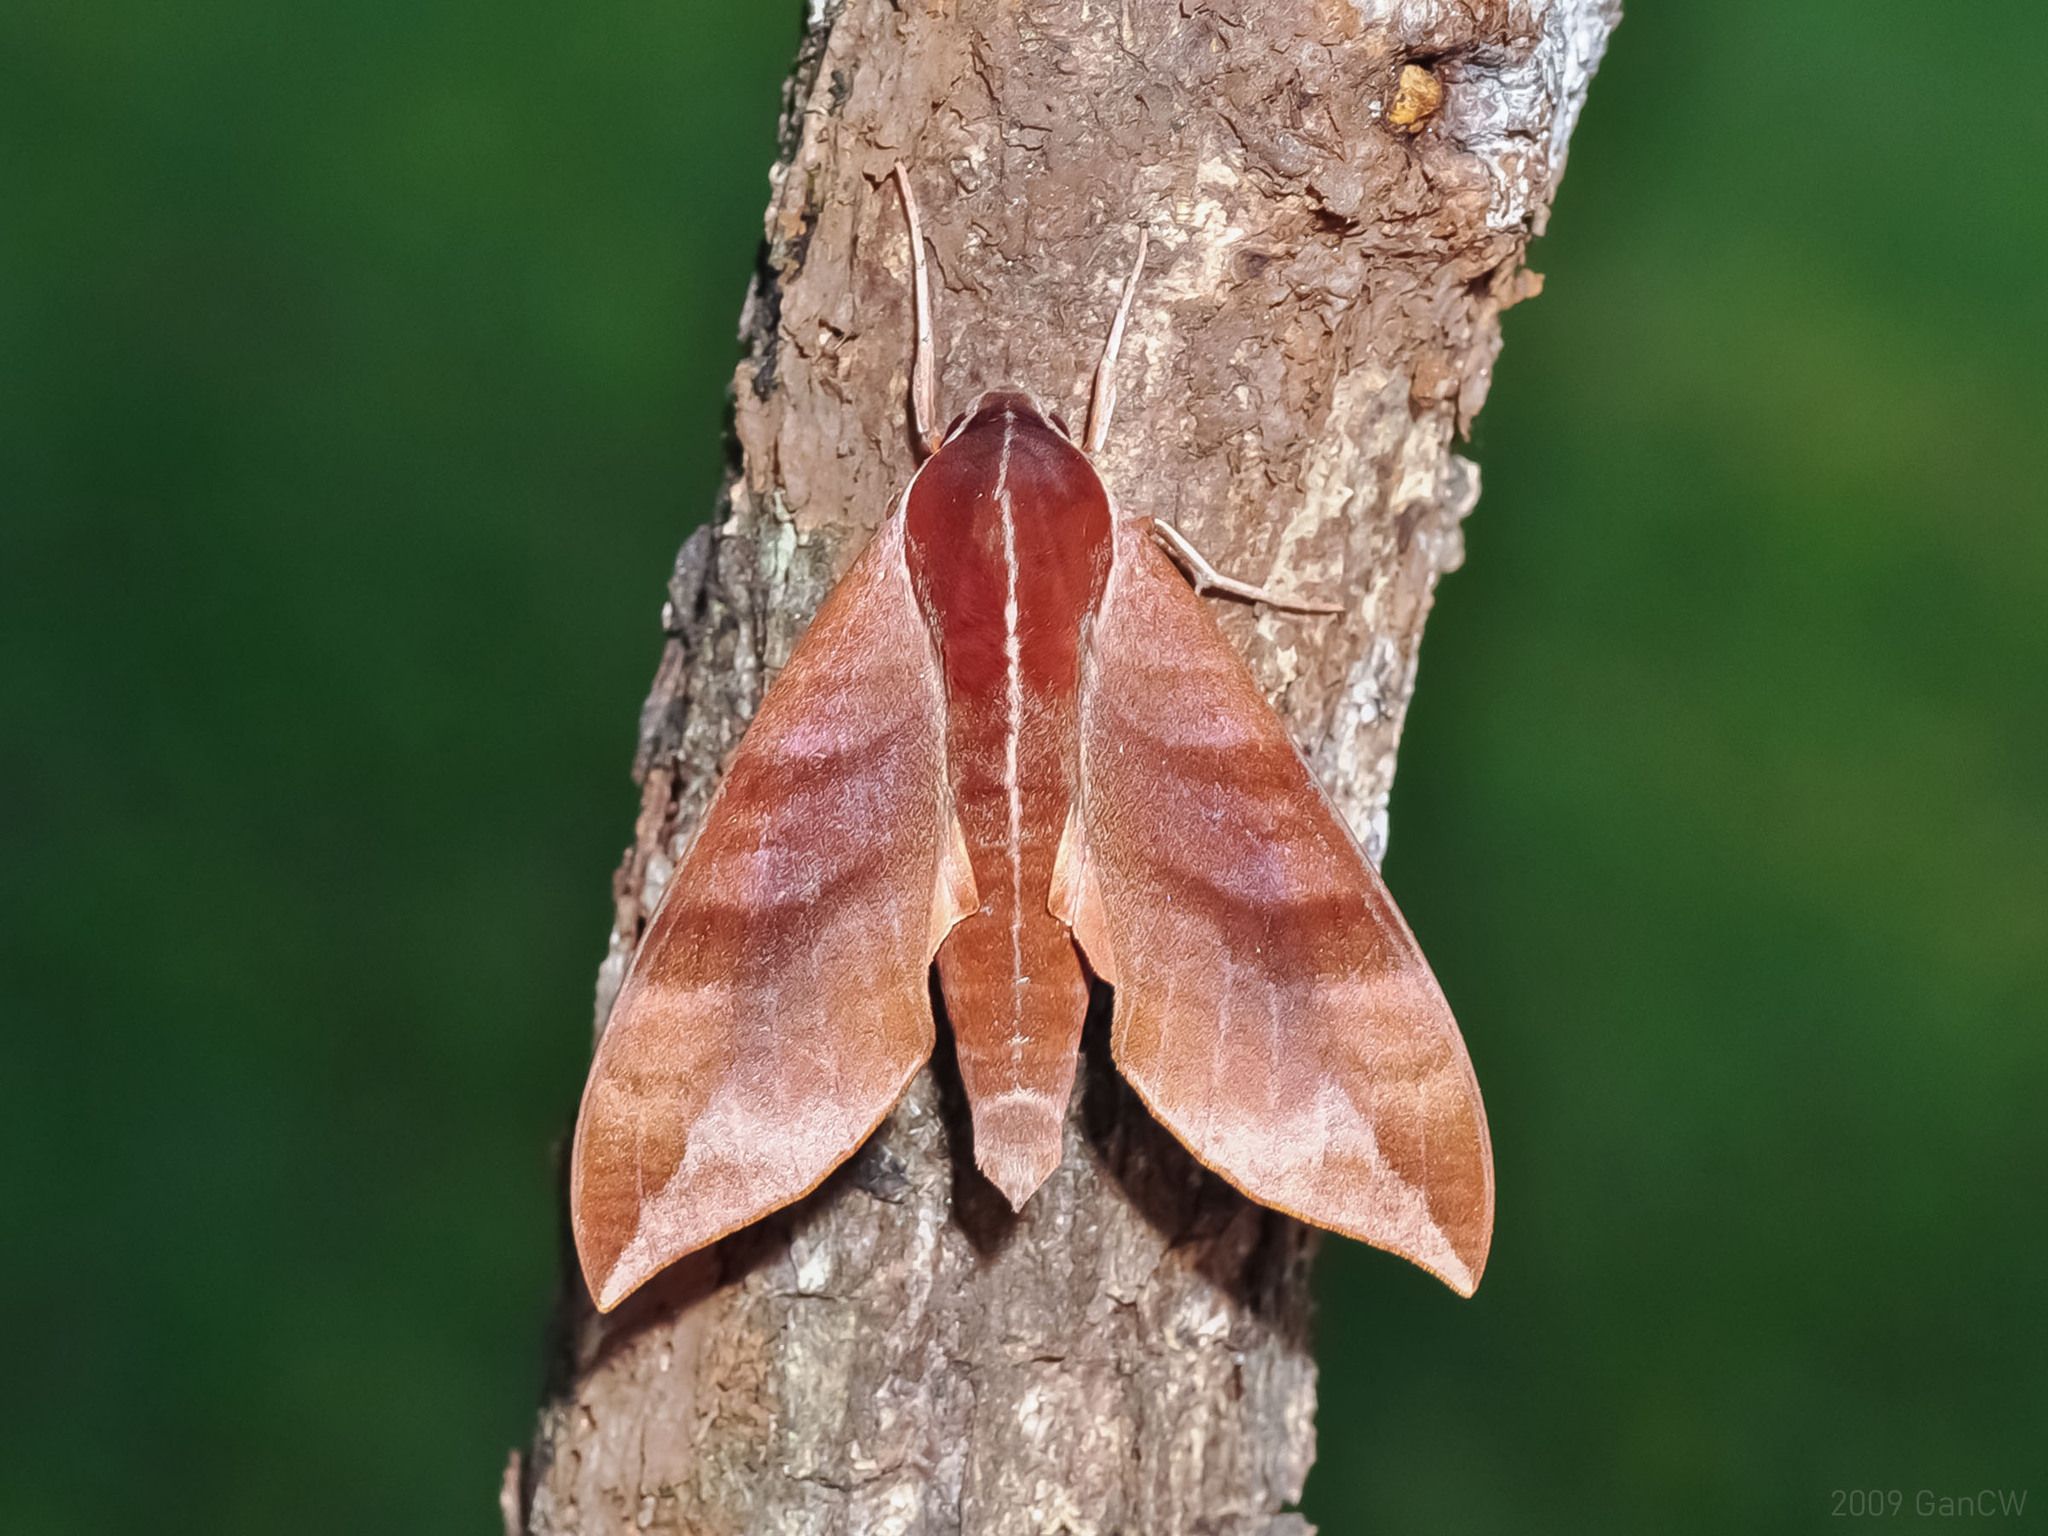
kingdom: Animalia
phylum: Arthropoda
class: Insecta
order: Lepidoptera
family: Sphingidae
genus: Ampelophaga
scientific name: Ampelophaga rubiginosa
